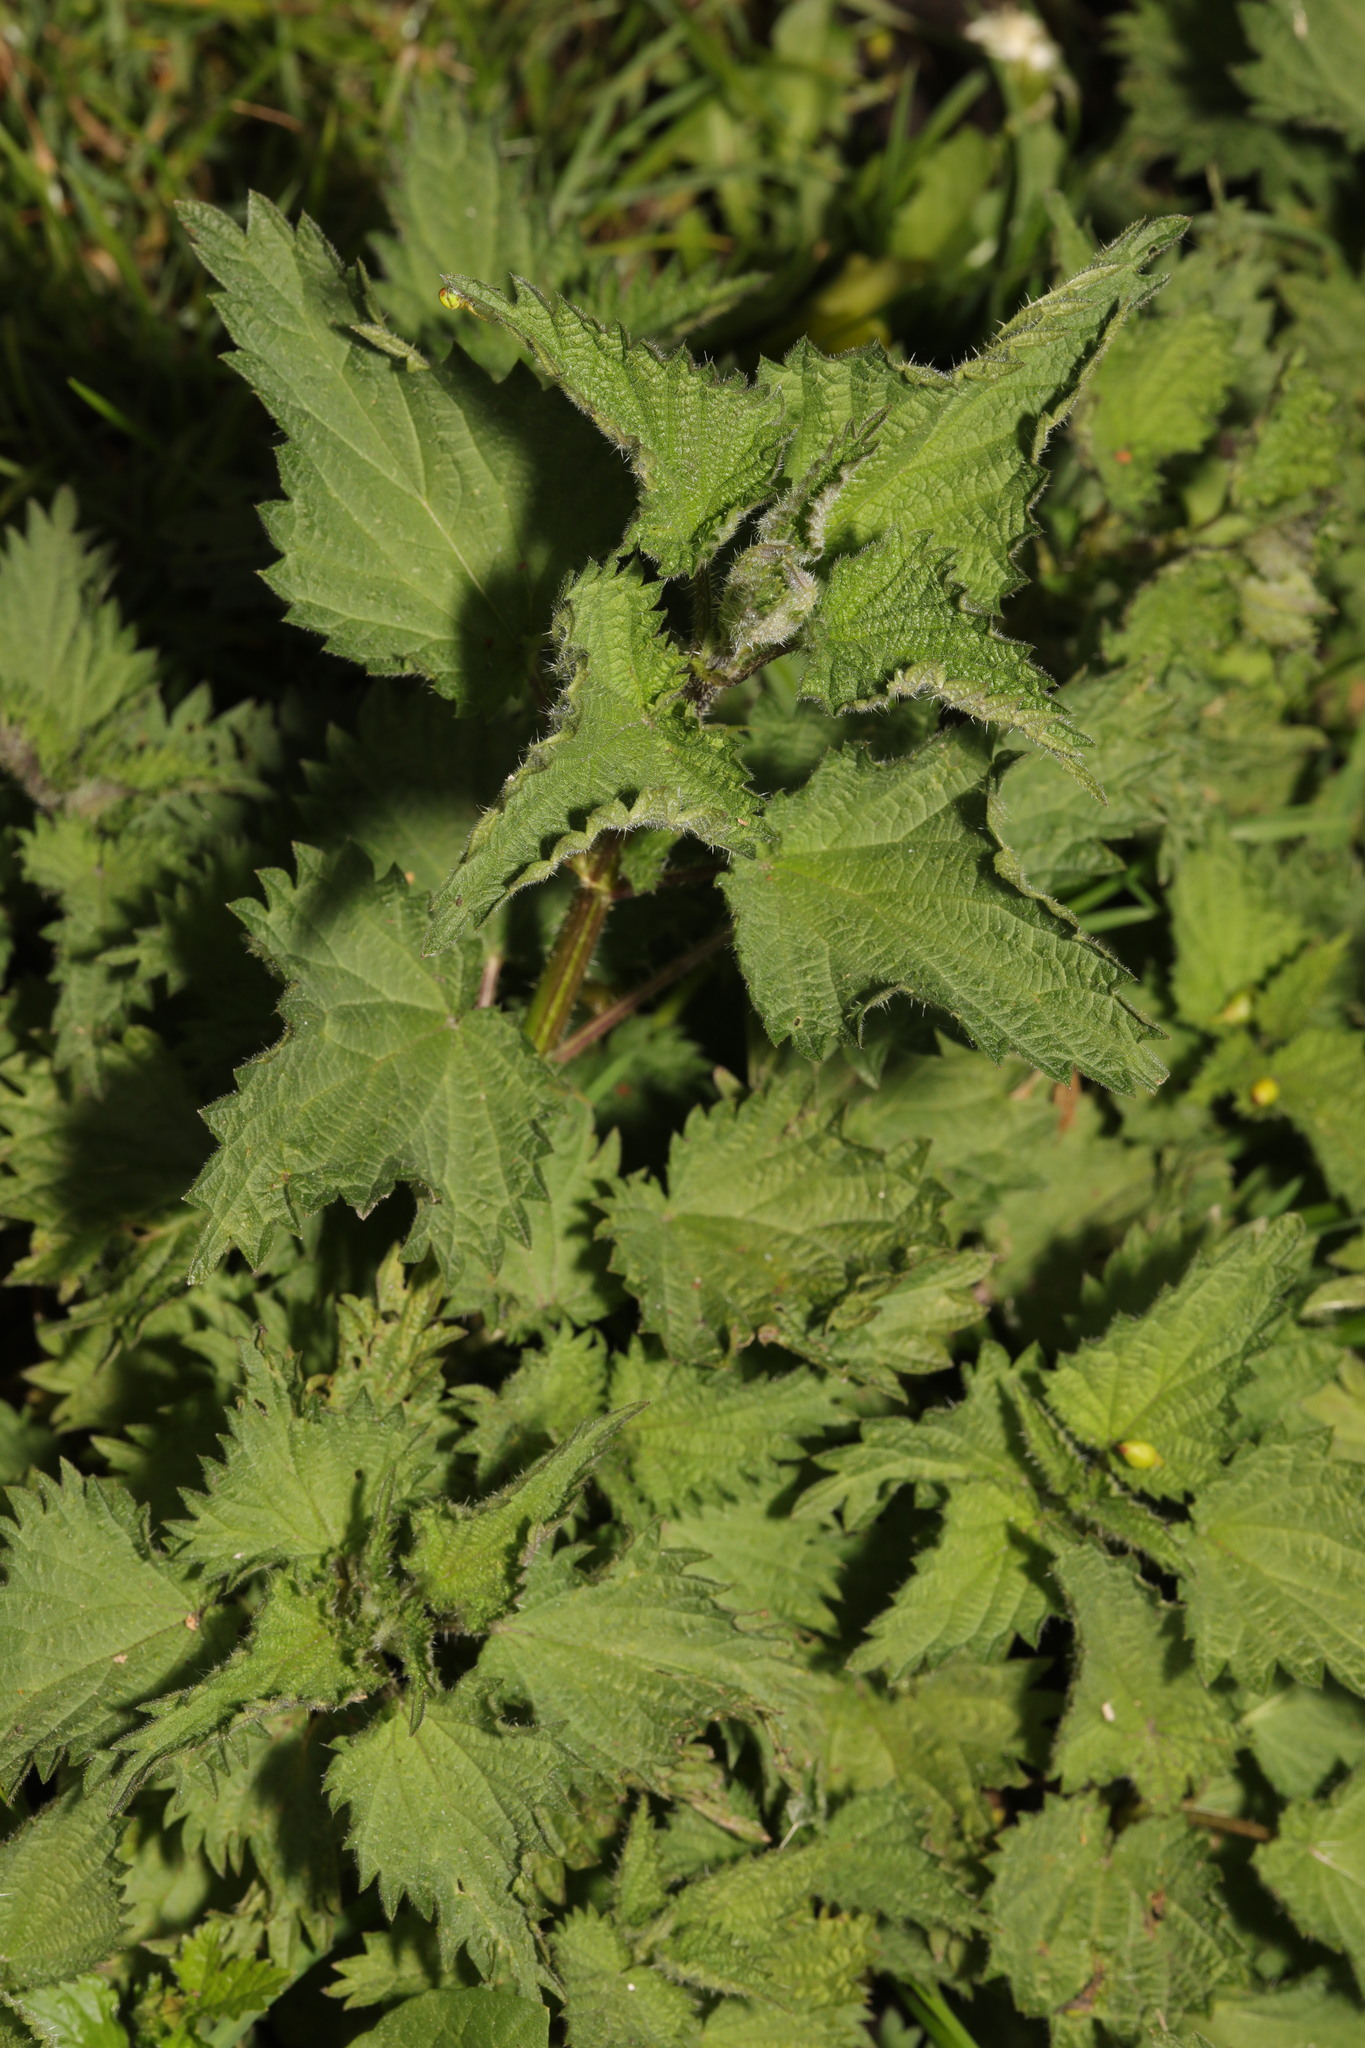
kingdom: Plantae
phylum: Tracheophyta
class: Magnoliopsida
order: Rosales
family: Urticaceae
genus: Urtica
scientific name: Urtica dioica
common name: Common nettle
